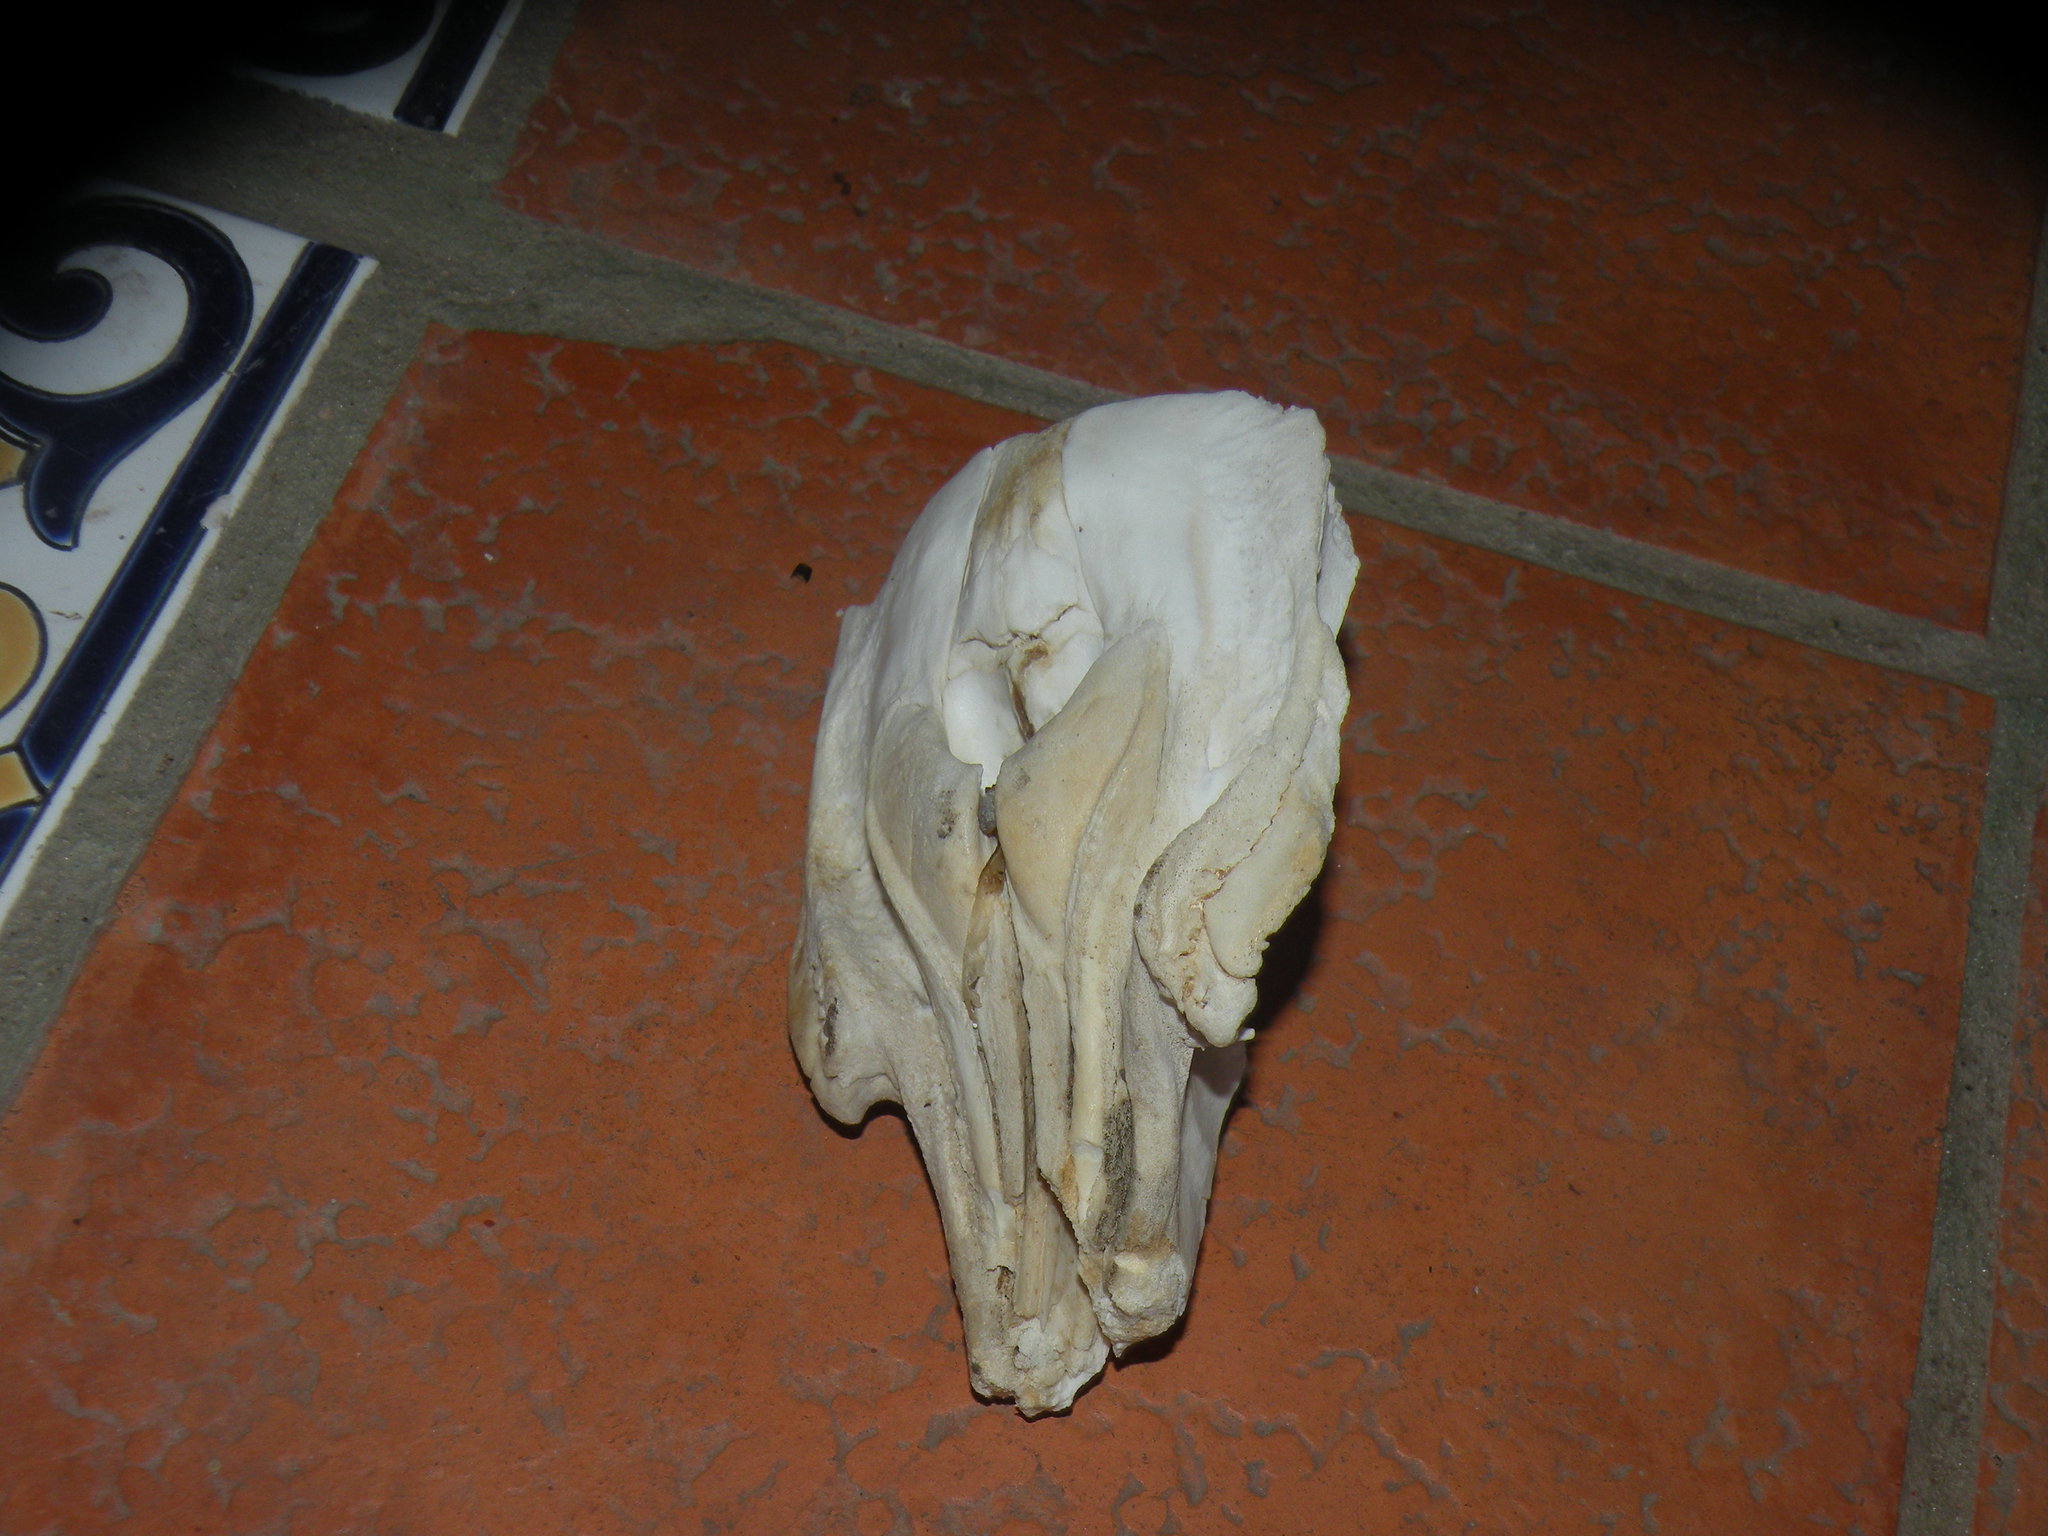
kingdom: Animalia
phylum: Chordata
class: Mammalia
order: Cetacea
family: Pontoporiidae
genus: Pontoporia
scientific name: Pontoporia blainvillei
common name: Franciscana
